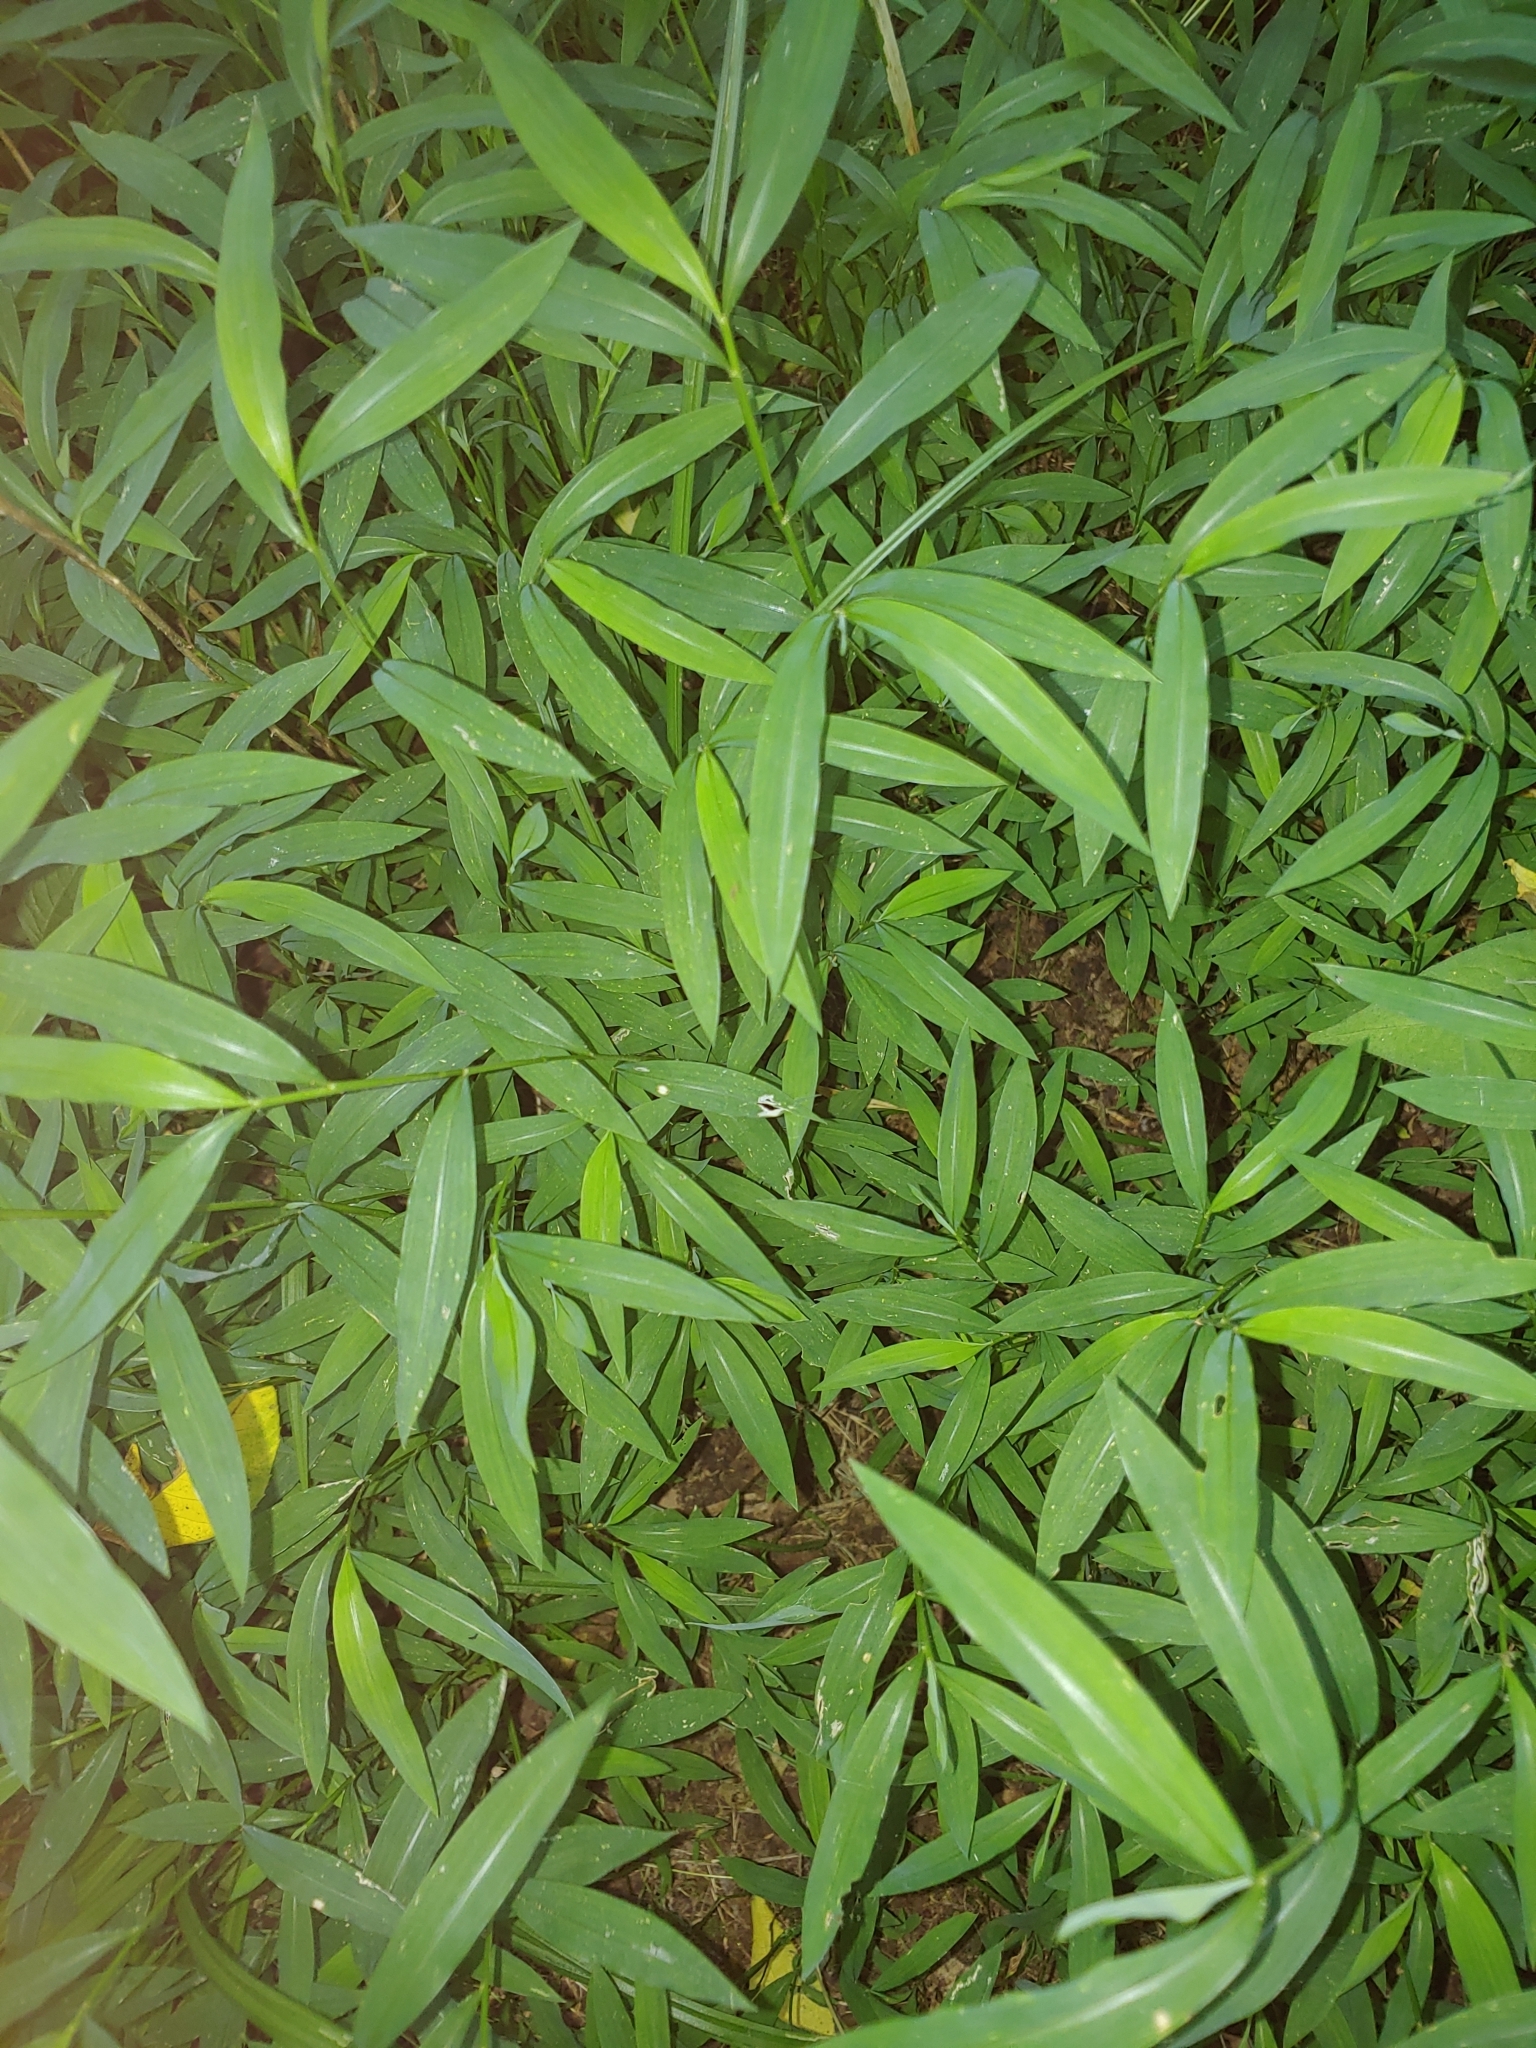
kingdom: Plantae
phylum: Tracheophyta
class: Liliopsida
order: Poales
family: Poaceae
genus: Microstegium
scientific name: Microstegium vimineum
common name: Japanese stiltgrass
